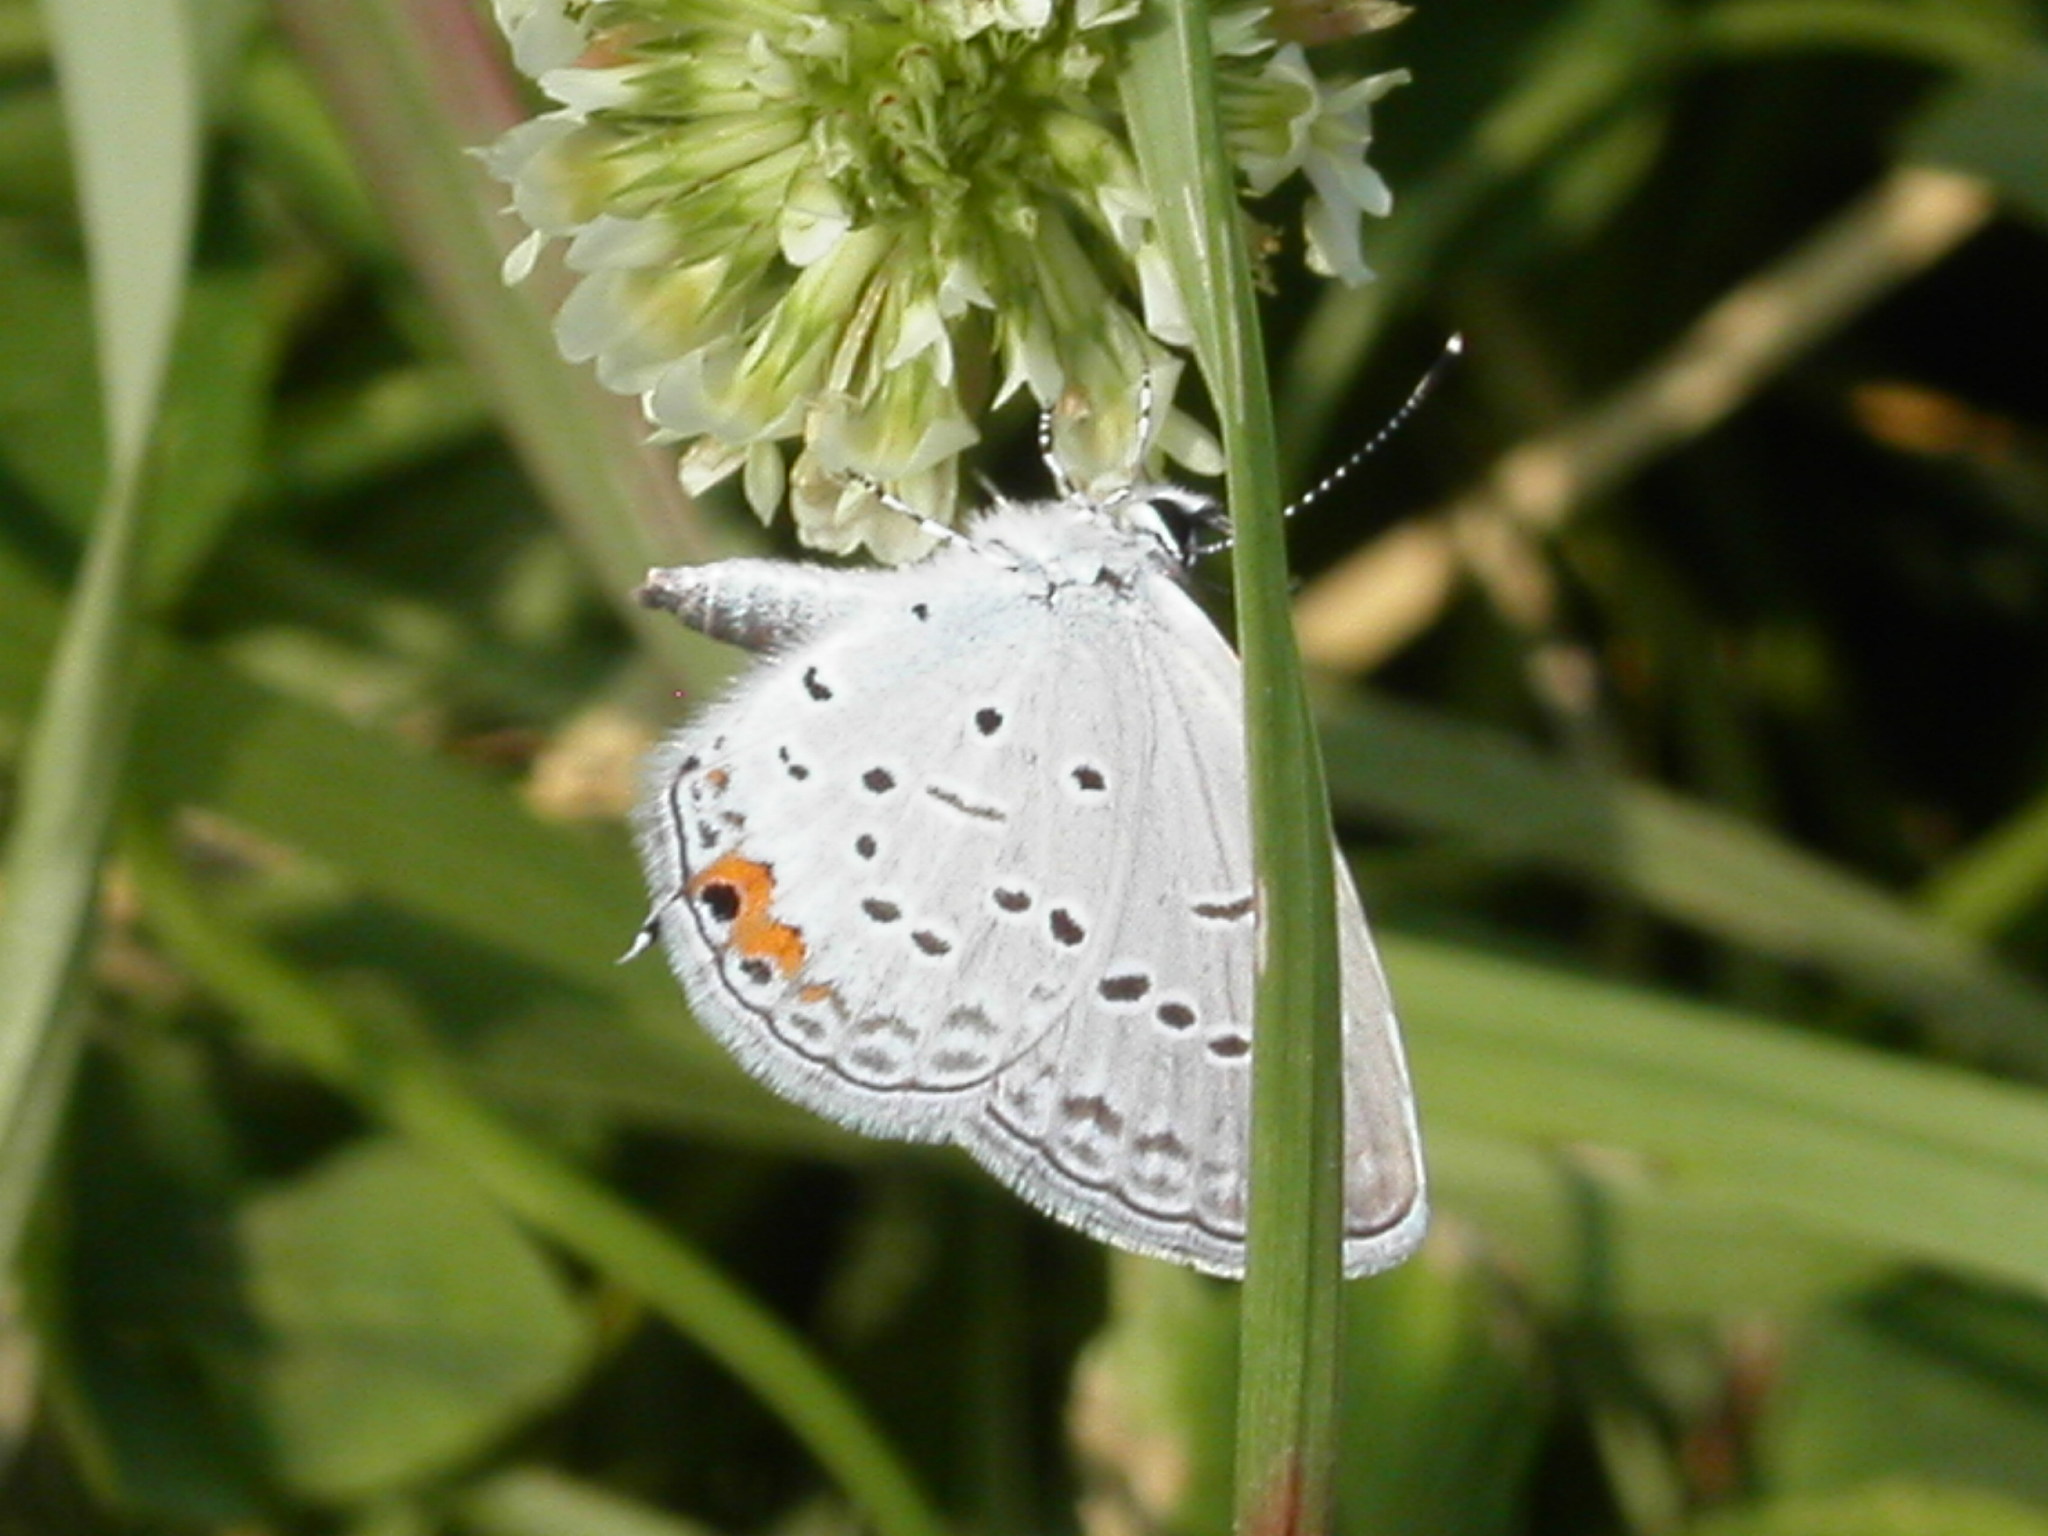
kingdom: Animalia
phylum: Arthropoda
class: Insecta
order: Lepidoptera
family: Lycaenidae
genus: Elkalyce
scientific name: Elkalyce comyntas
